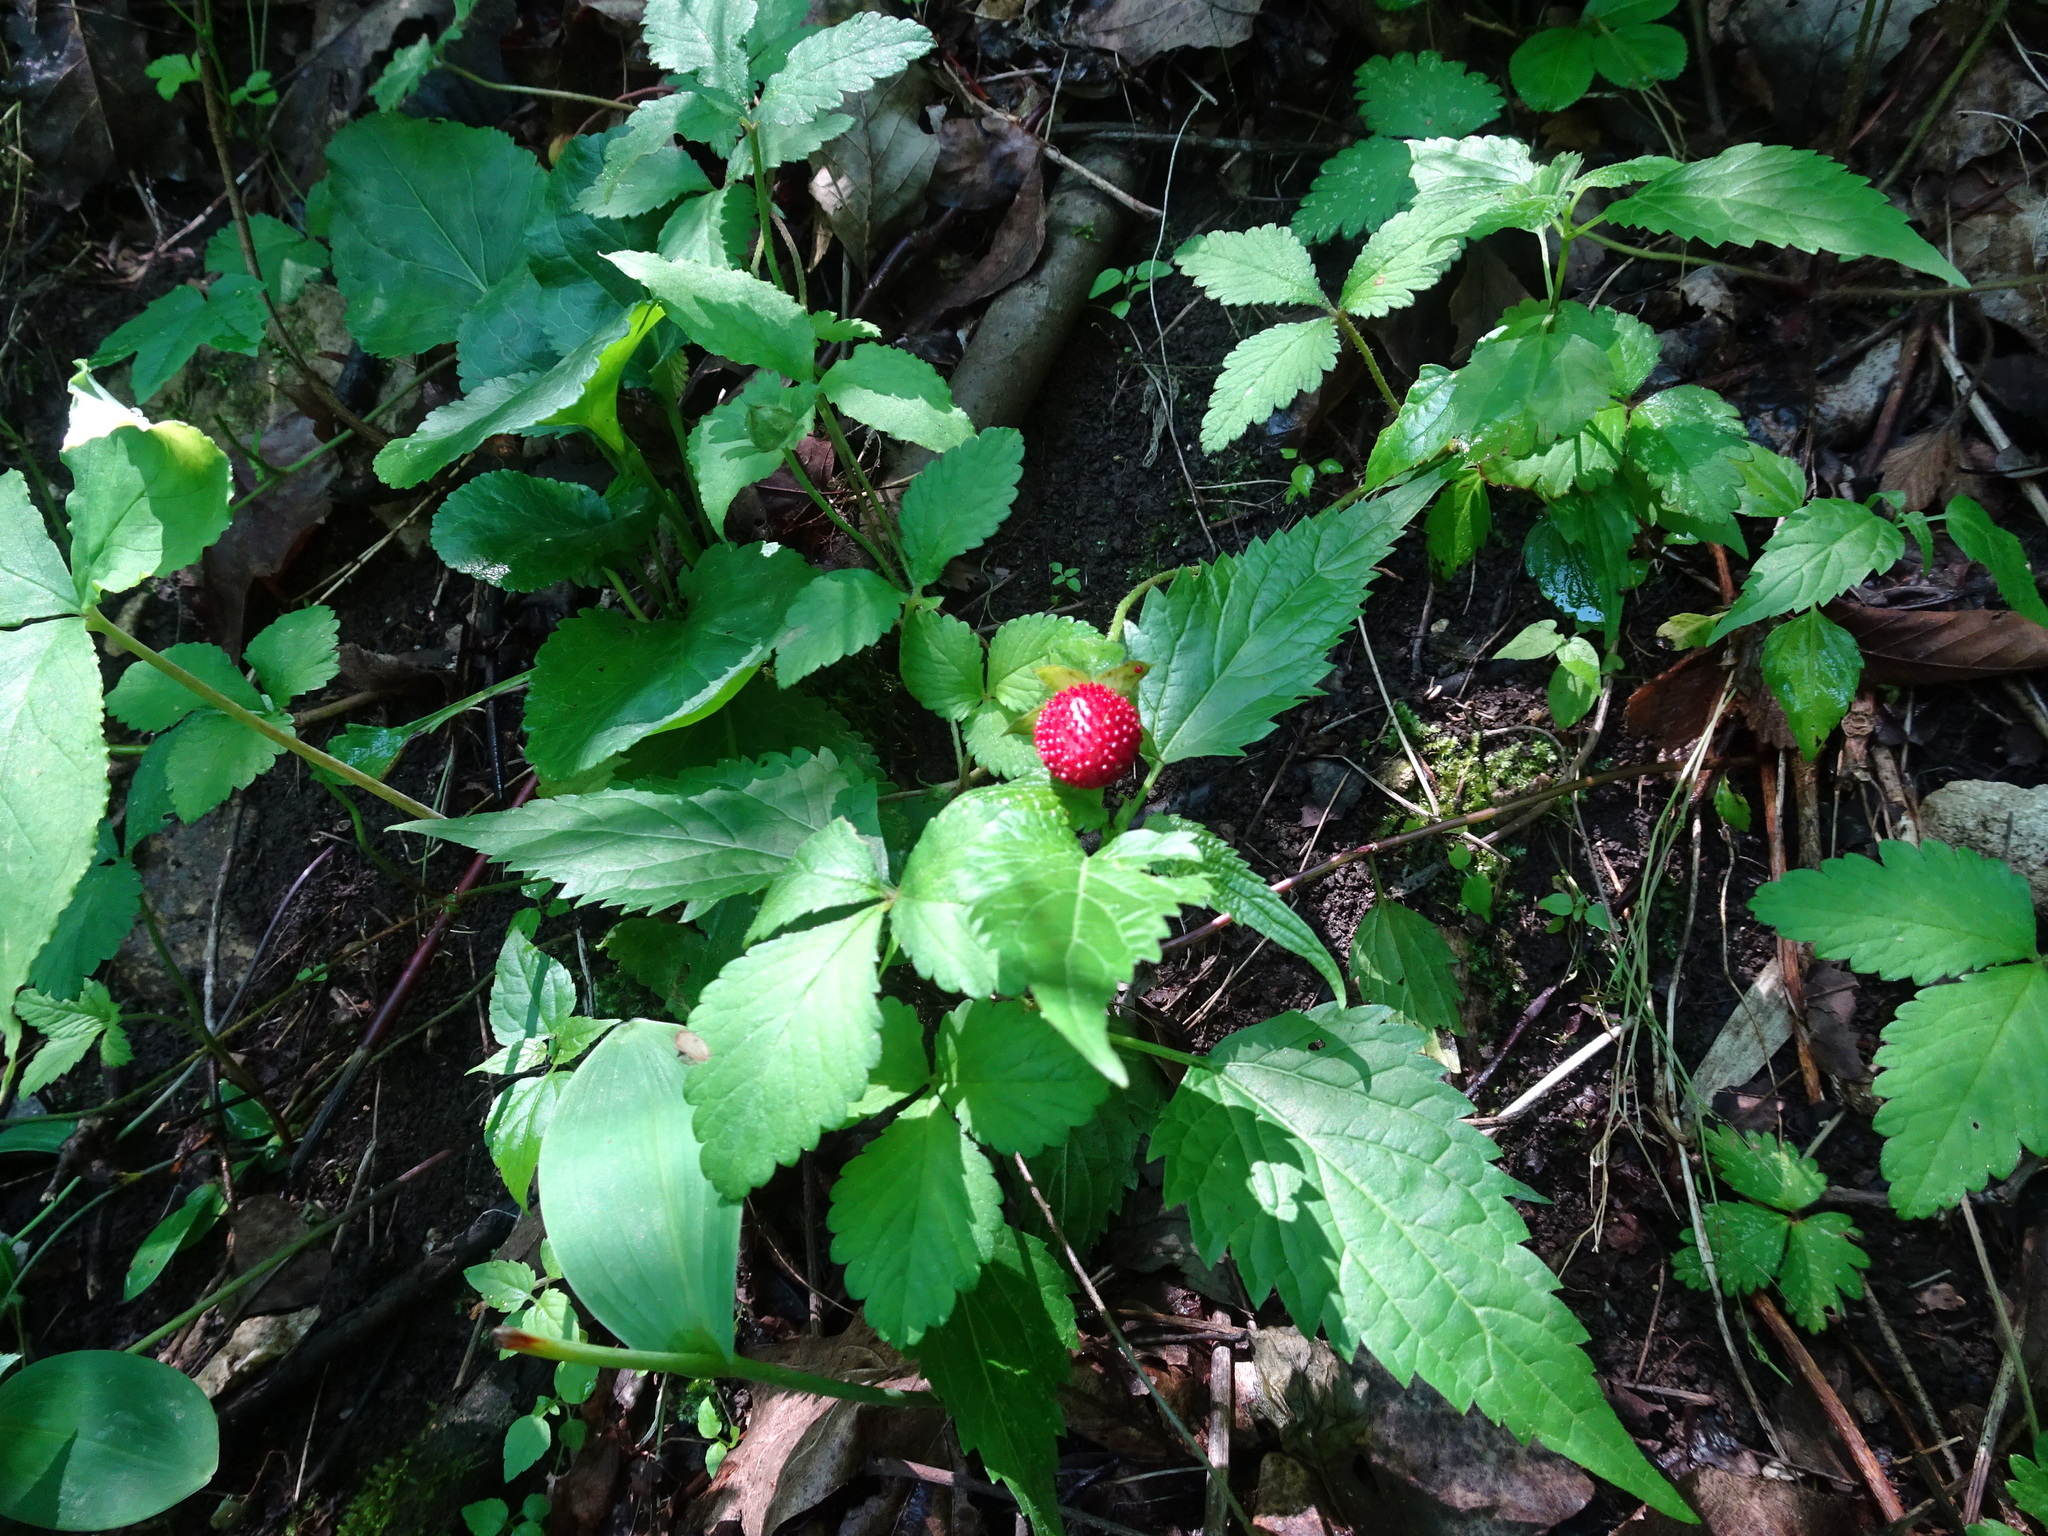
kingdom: Plantae
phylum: Tracheophyta
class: Magnoliopsida
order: Rosales
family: Rosaceae
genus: Potentilla
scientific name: Potentilla indica
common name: Yellow-flowered strawberry
